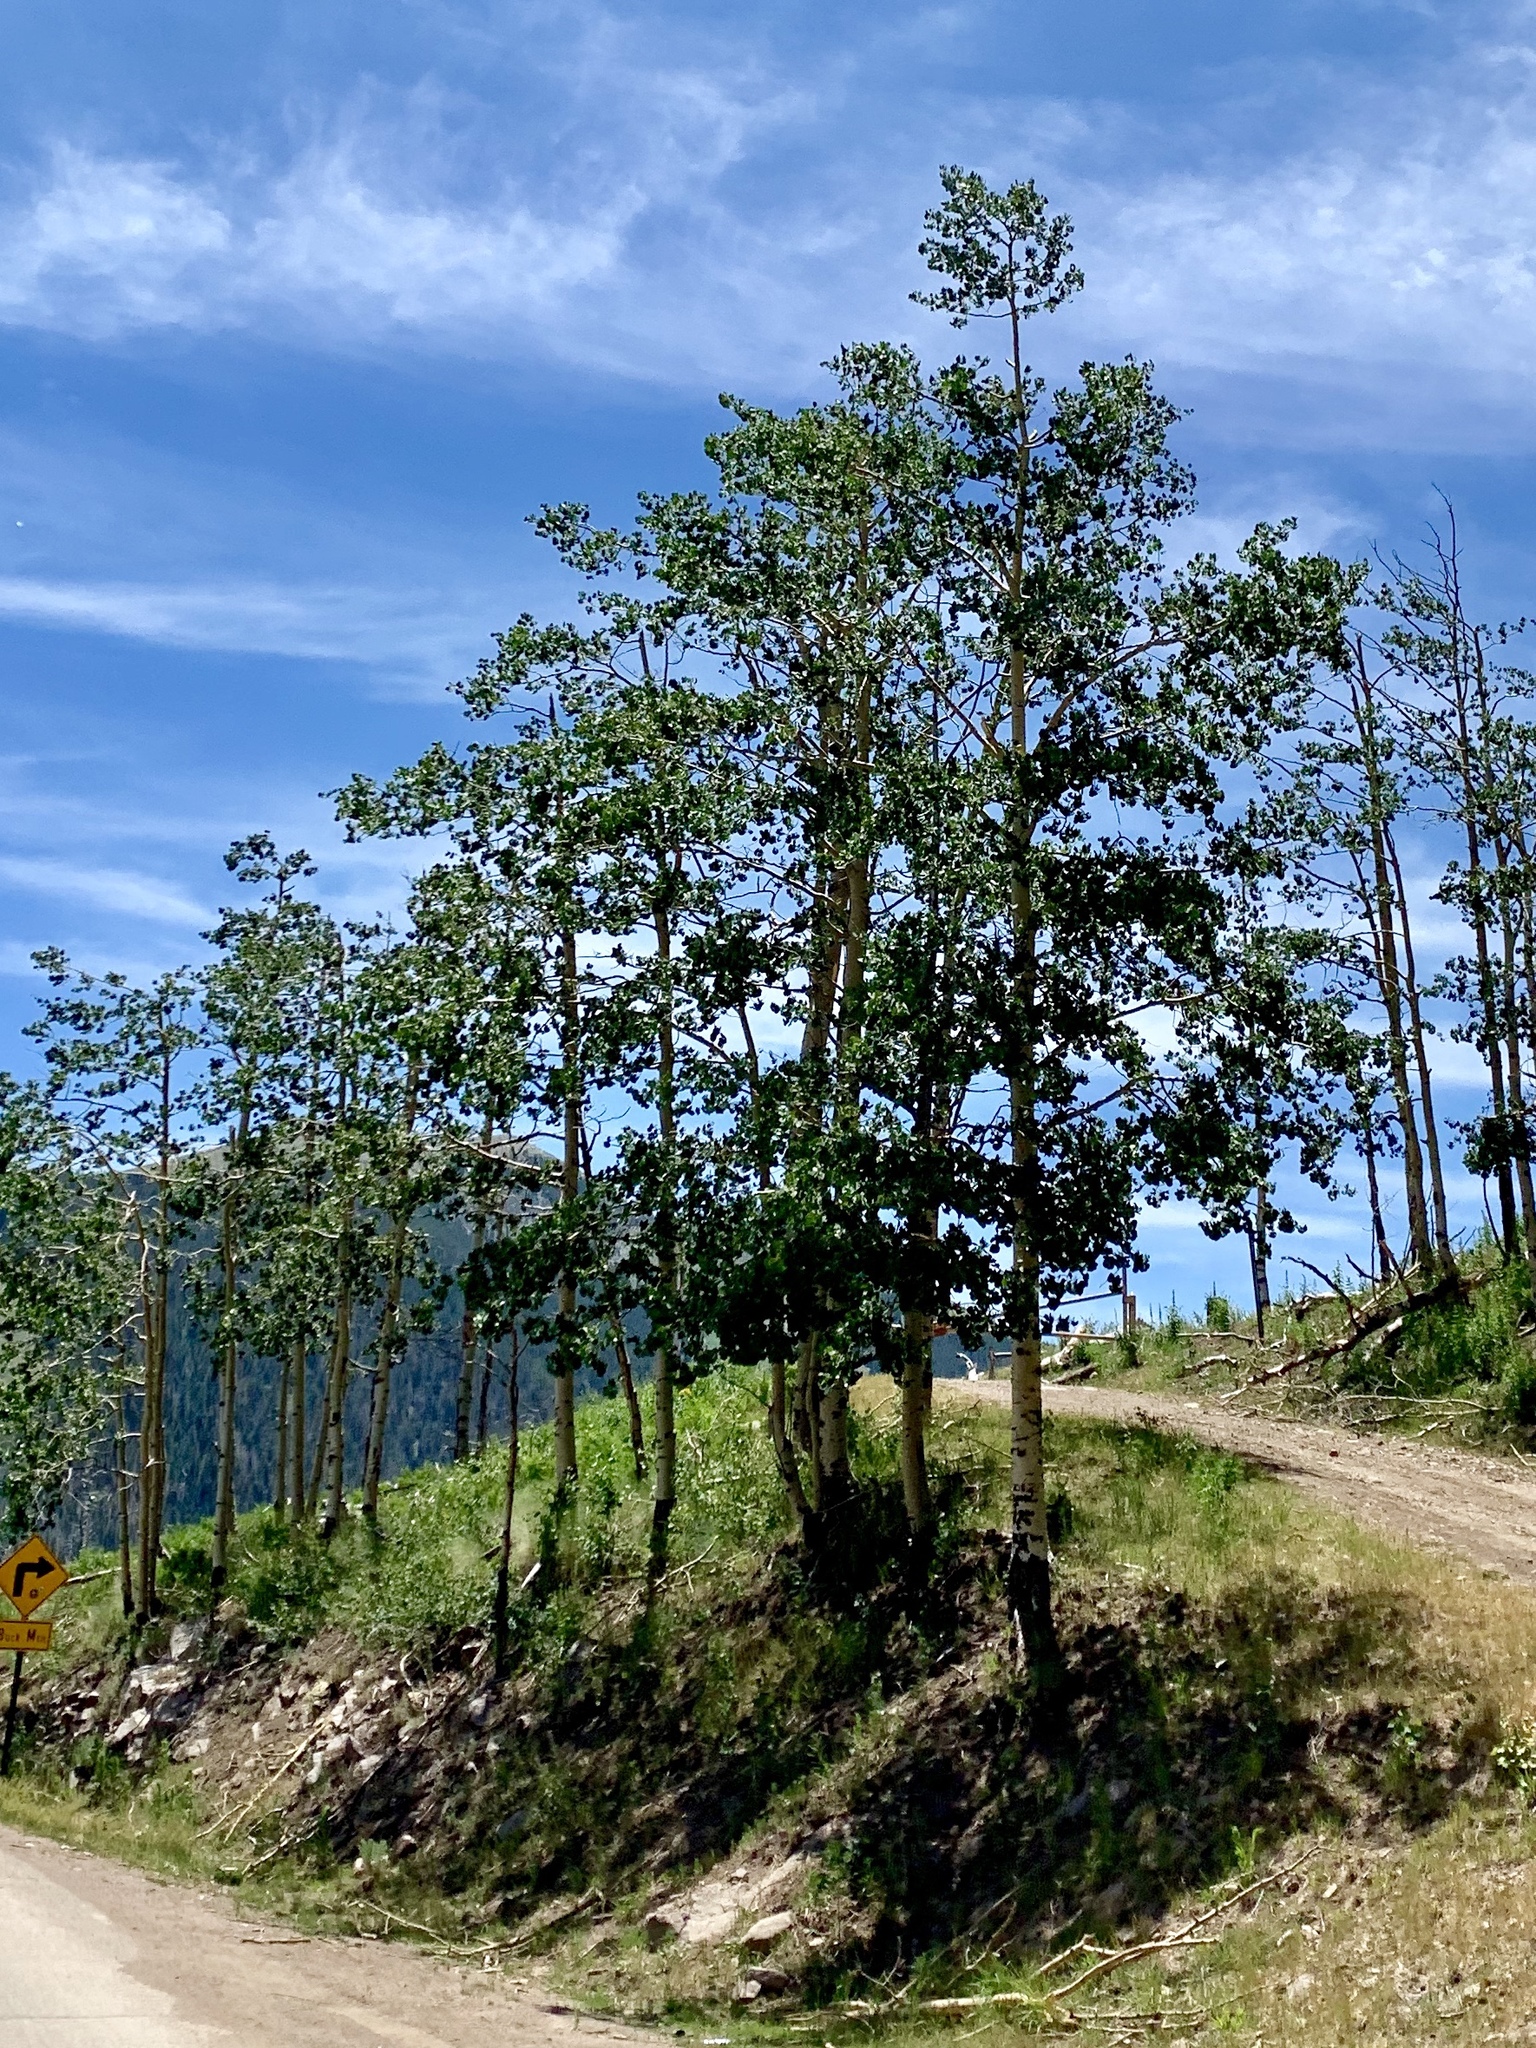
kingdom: Plantae
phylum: Tracheophyta
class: Magnoliopsida
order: Malpighiales
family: Salicaceae
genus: Populus
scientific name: Populus tremuloides
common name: Quaking aspen
